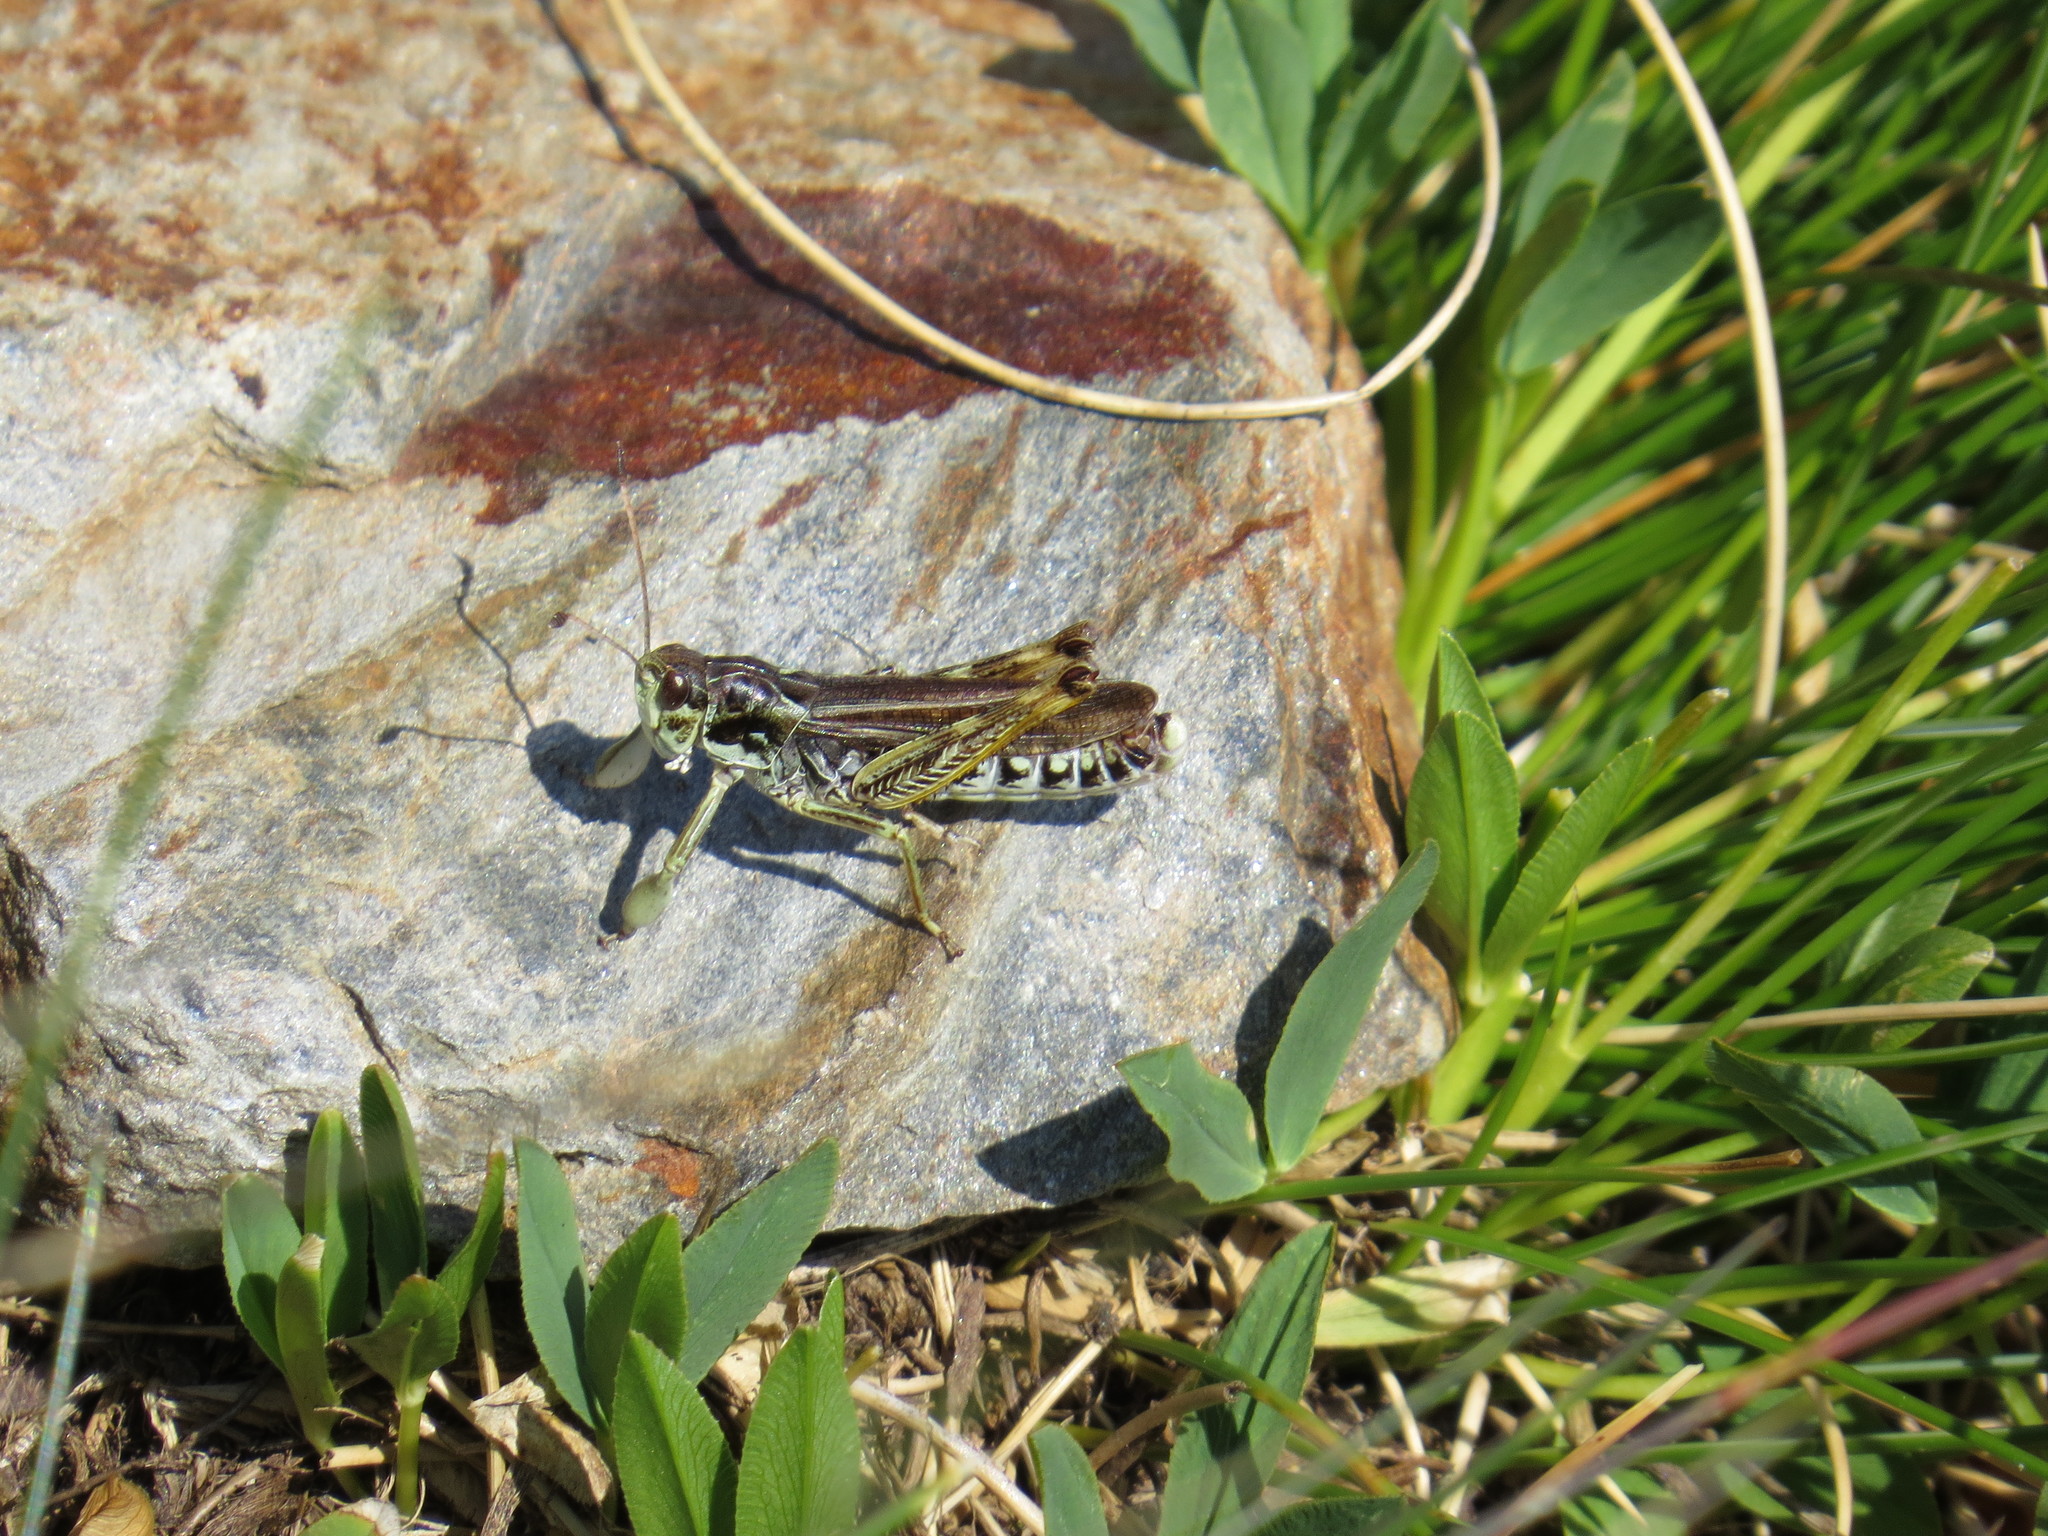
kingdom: Animalia
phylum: Arthropoda
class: Insecta
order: Orthoptera
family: Acrididae
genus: Gomphocerus
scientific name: Gomphocerus sibiricus
